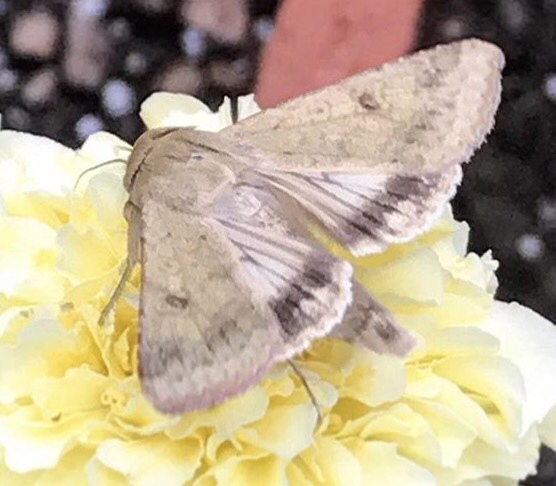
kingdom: Animalia
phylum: Arthropoda
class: Insecta
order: Lepidoptera
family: Noctuidae
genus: Helicoverpa
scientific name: Helicoverpa zea
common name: Bollworm
